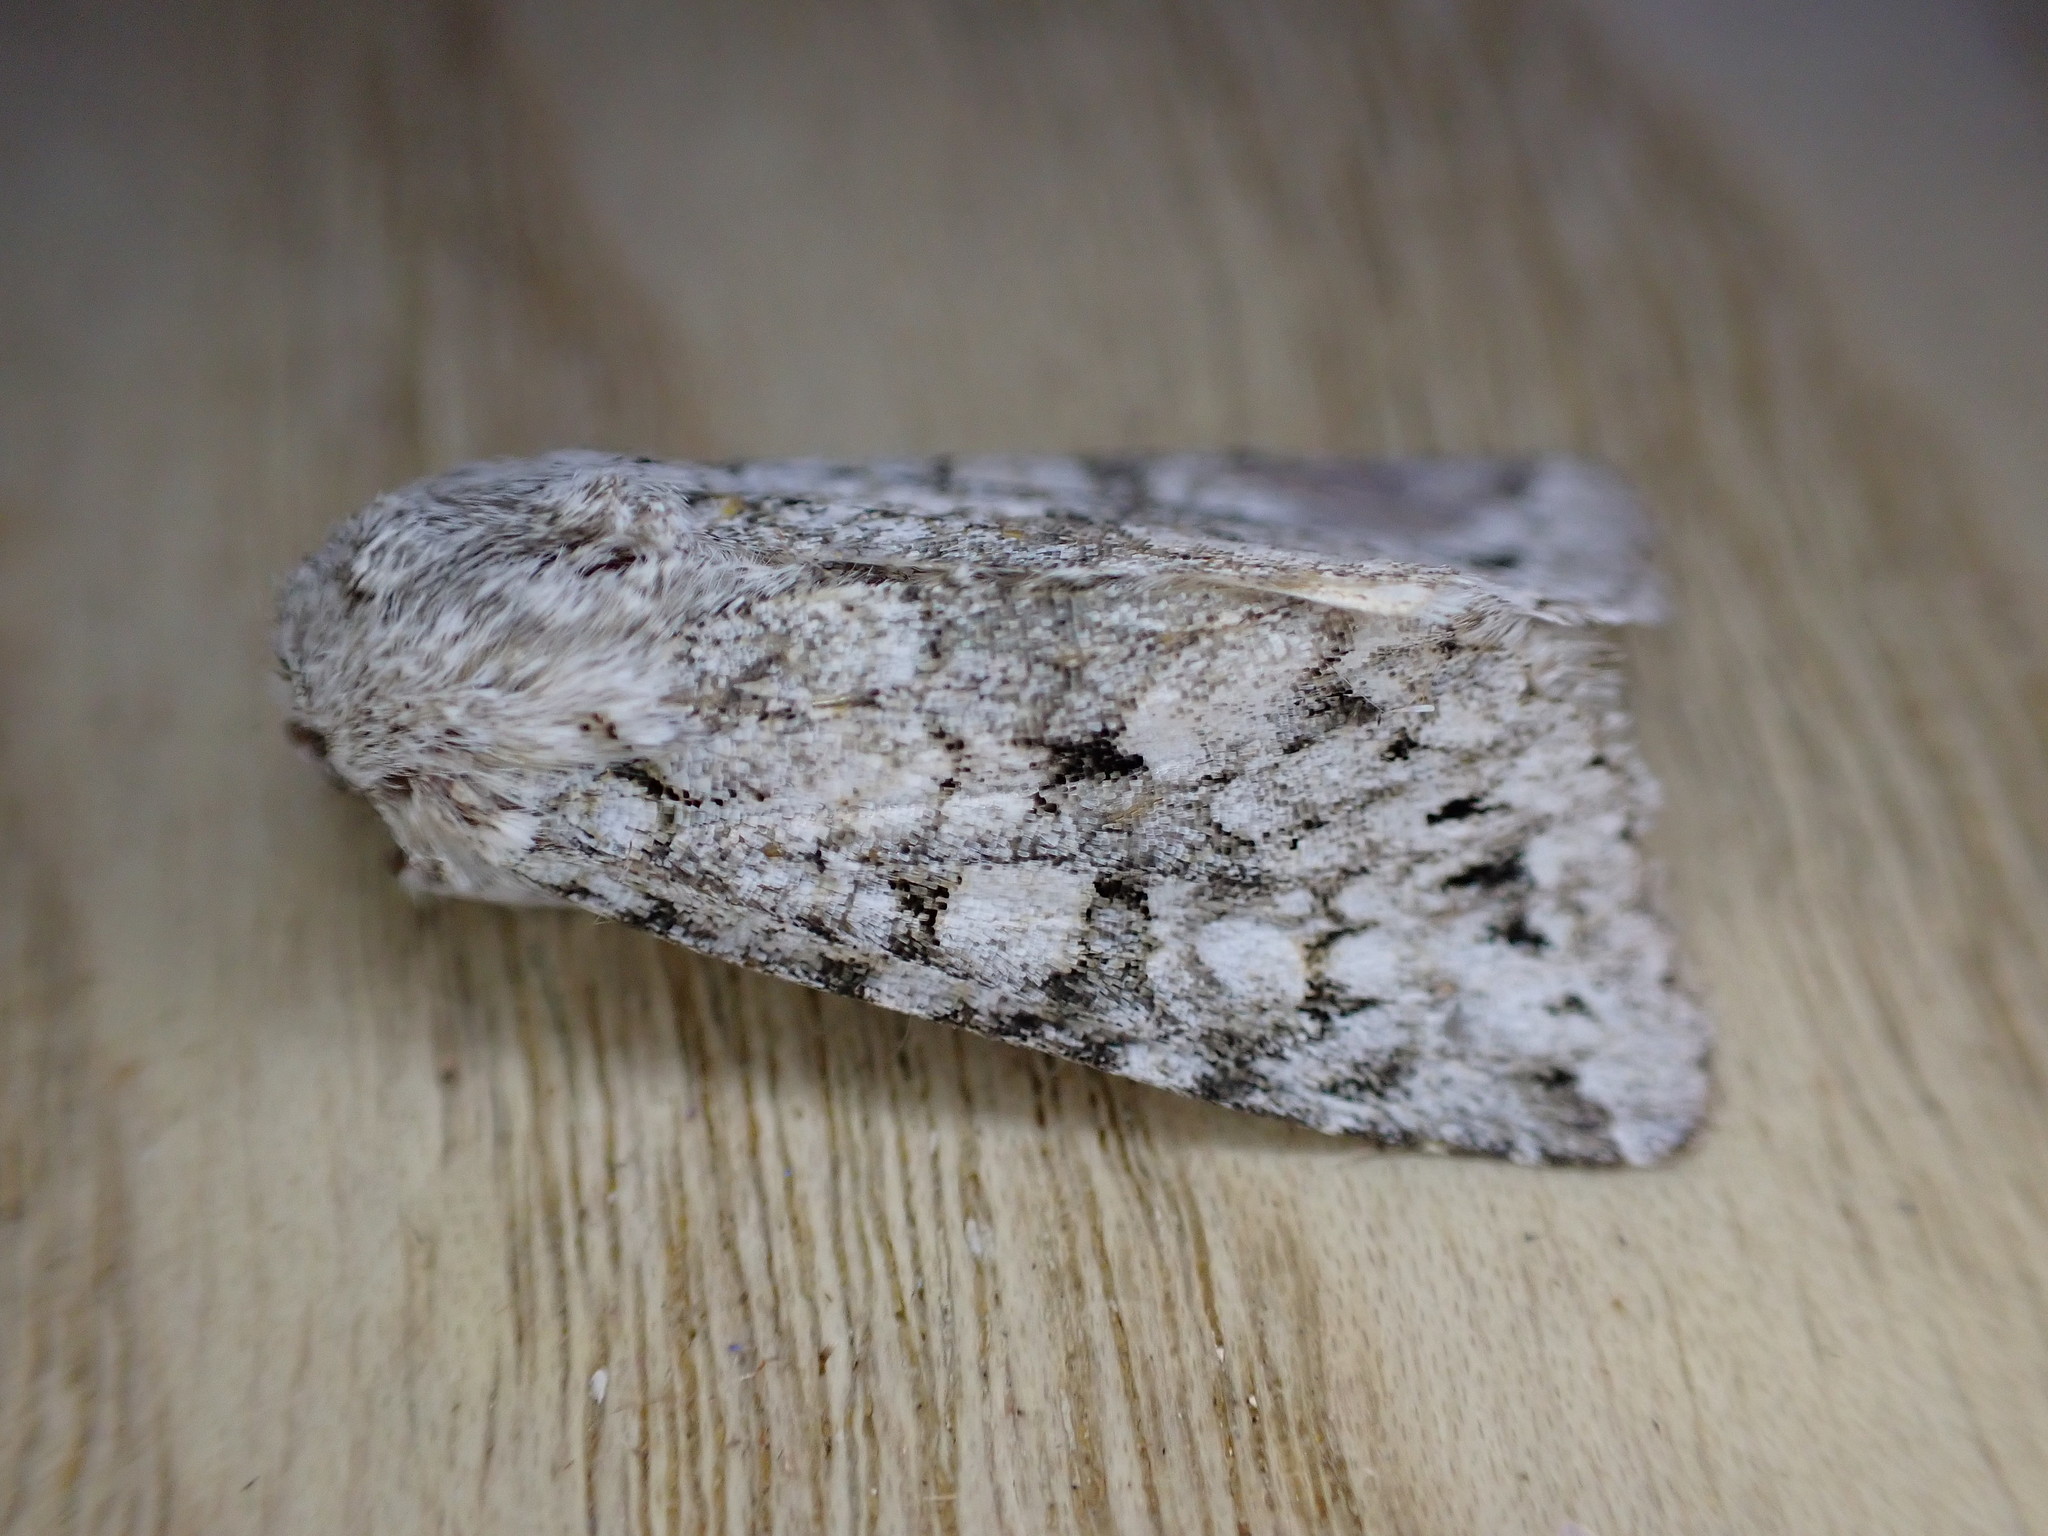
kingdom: Animalia
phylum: Arthropoda
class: Insecta
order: Lepidoptera
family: Noctuidae
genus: Antitype
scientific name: Antitype chi
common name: Grey chi
